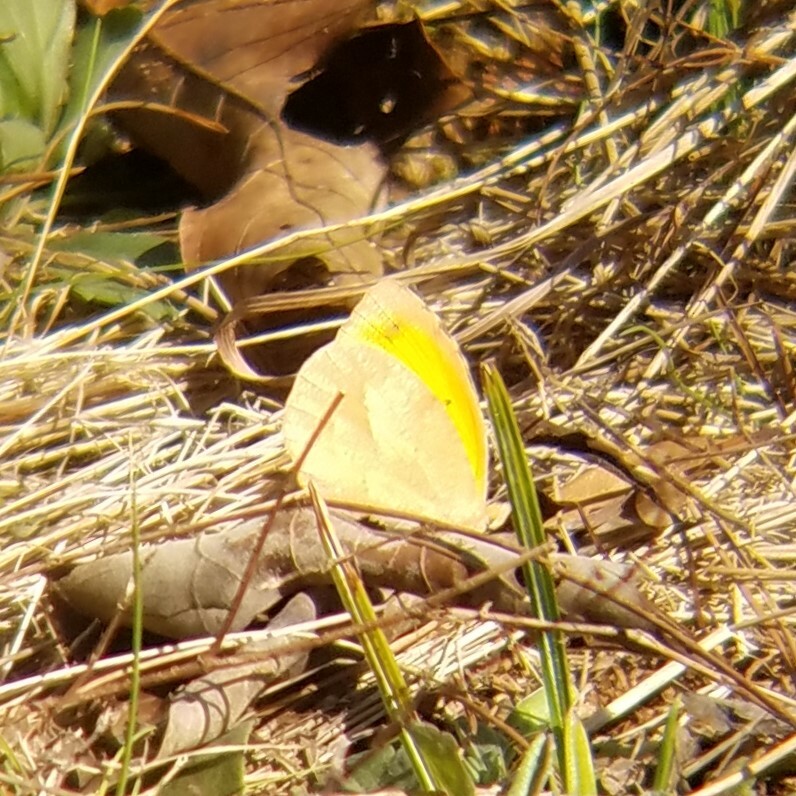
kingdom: Animalia
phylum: Arthropoda
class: Insecta
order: Lepidoptera
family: Pieridae
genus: Abaeis
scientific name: Abaeis nicippe
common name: Sleepy orange
